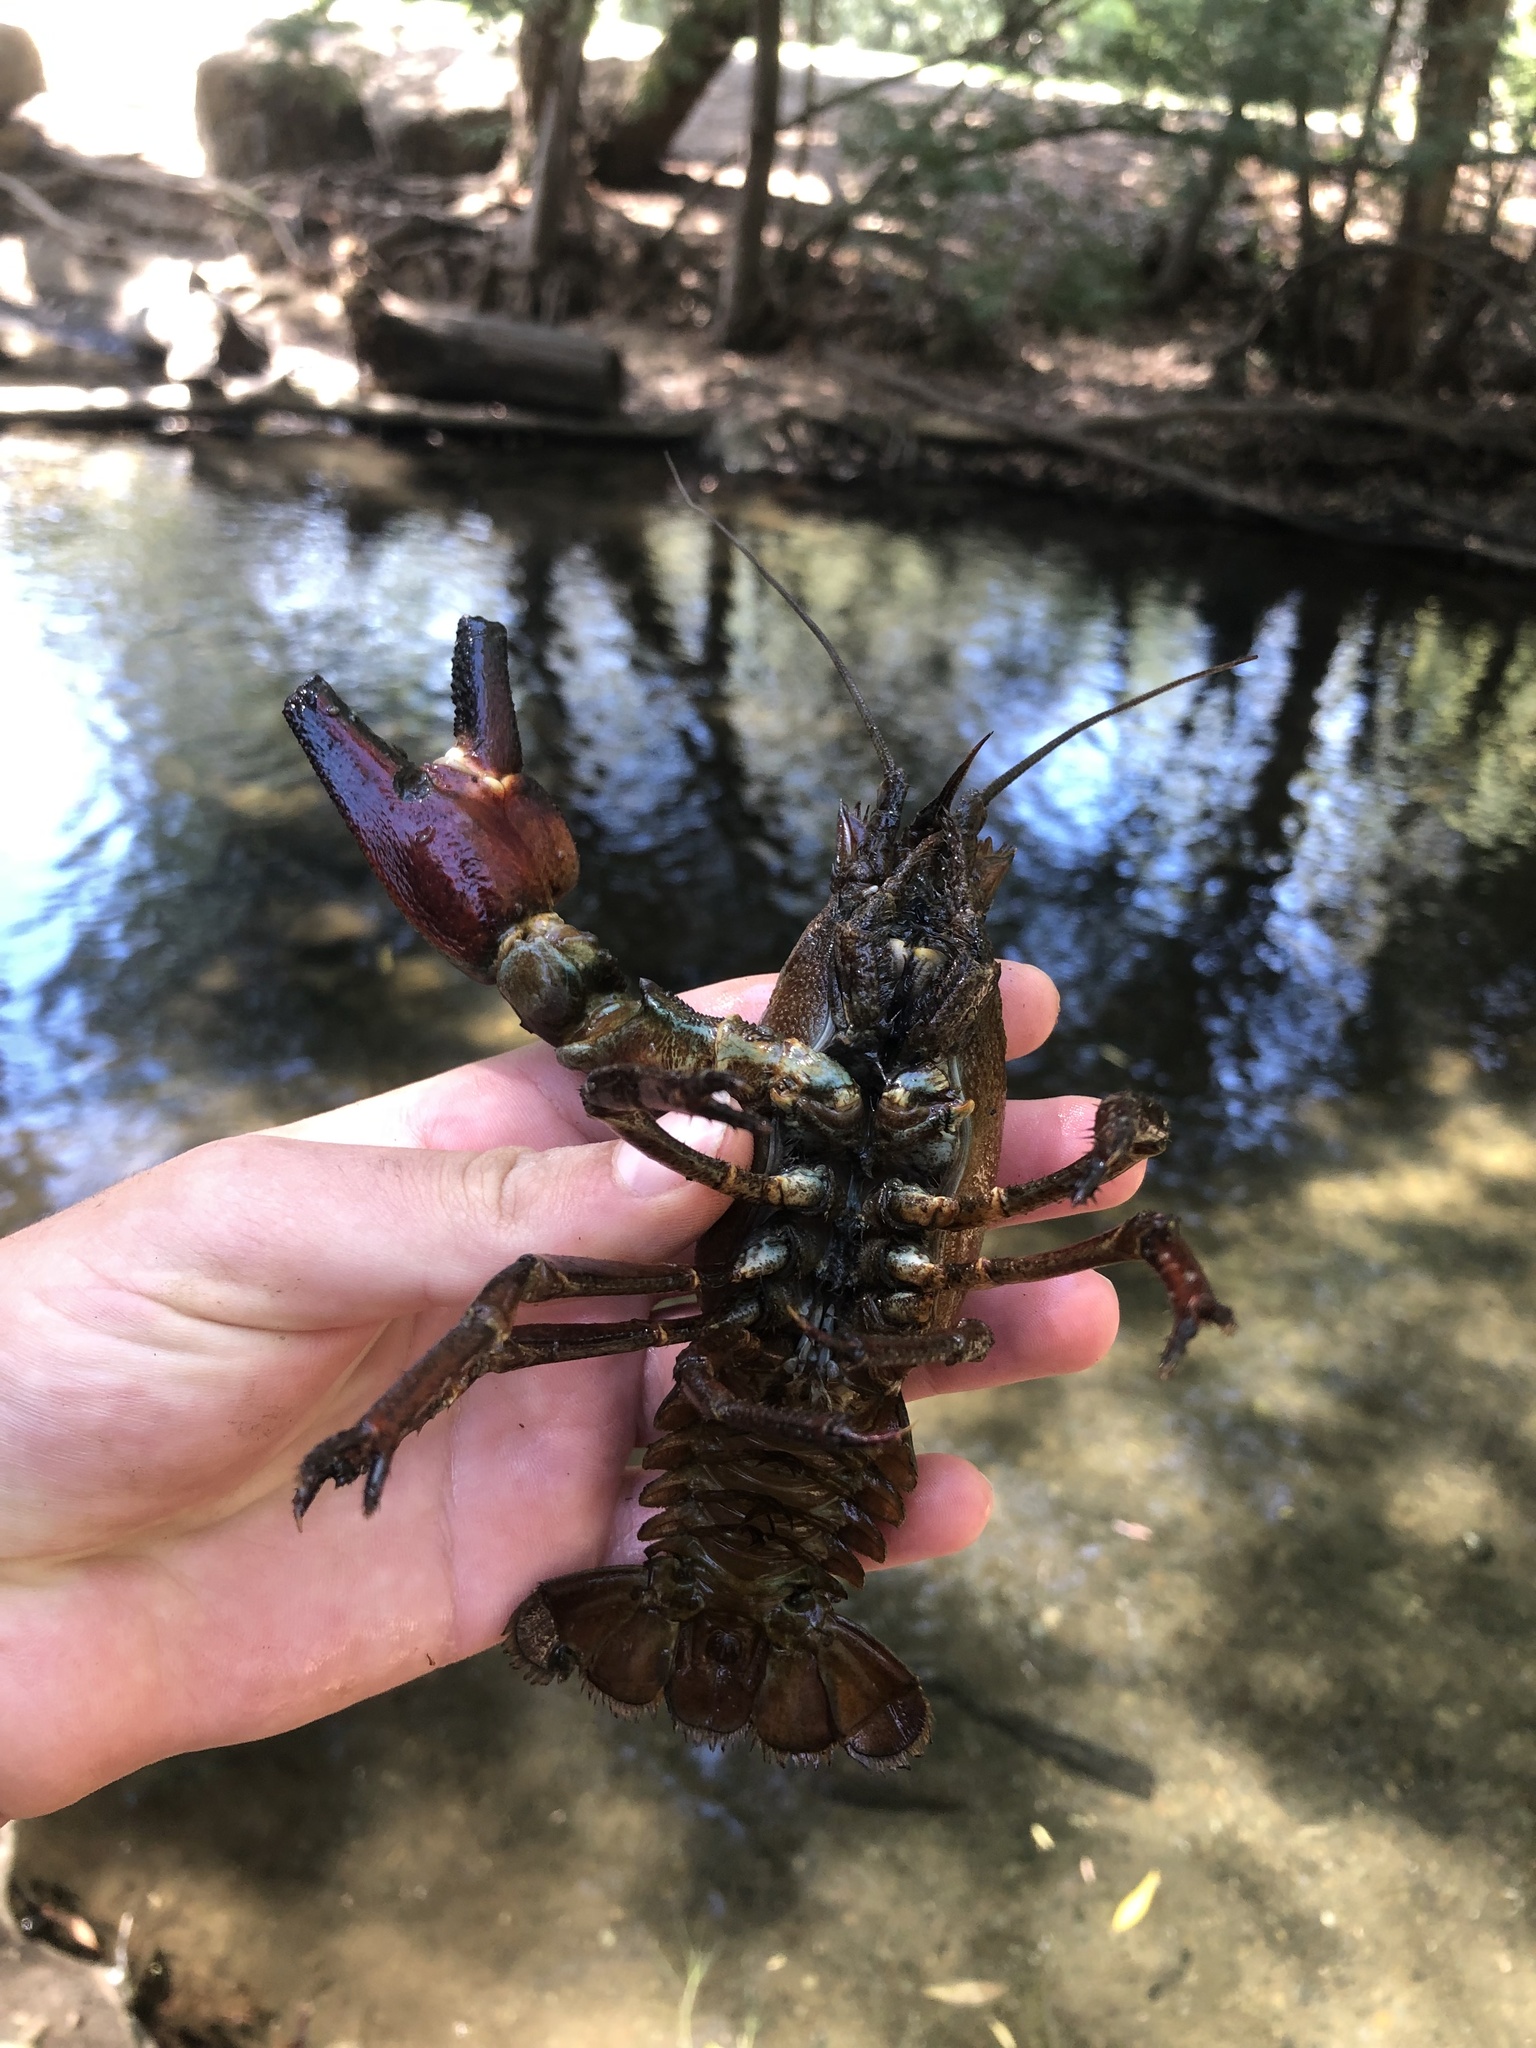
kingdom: Animalia
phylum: Arthropoda
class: Malacostraca
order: Decapoda
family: Astacidae
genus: Pacifastacus
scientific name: Pacifastacus leniusculus
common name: Signal crayfish
